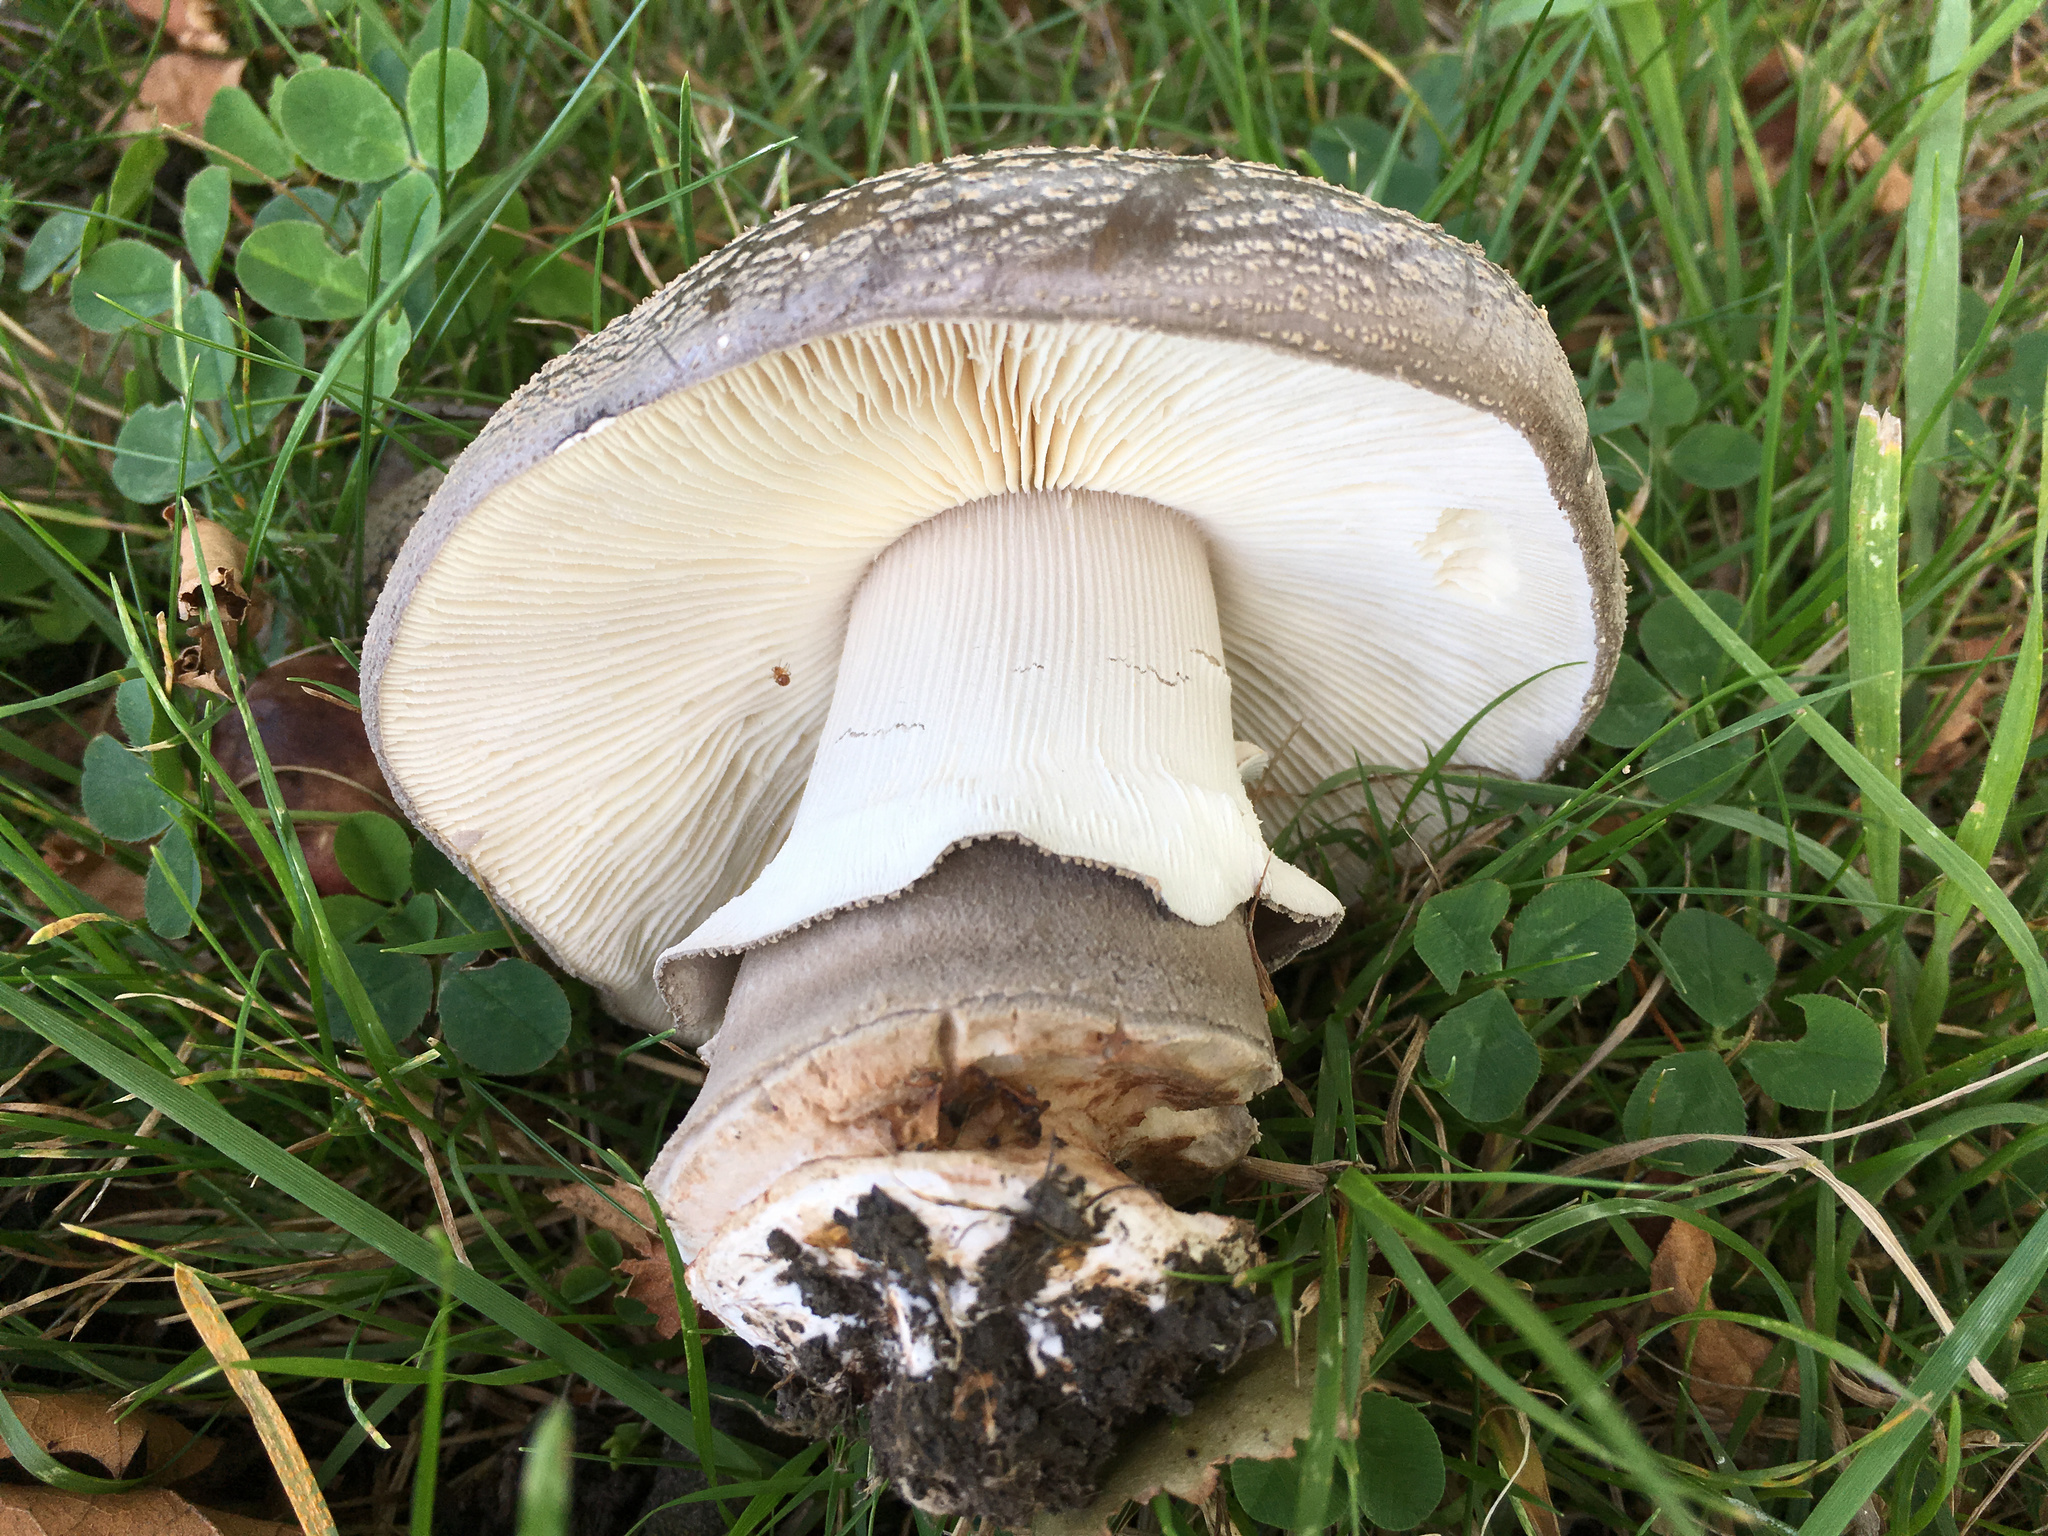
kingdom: Fungi
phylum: Basidiomycota
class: Agaricomycetes
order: Agaricales
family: Amanitaceae
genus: Amanita
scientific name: Amanita excelsa
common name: European false blusher
